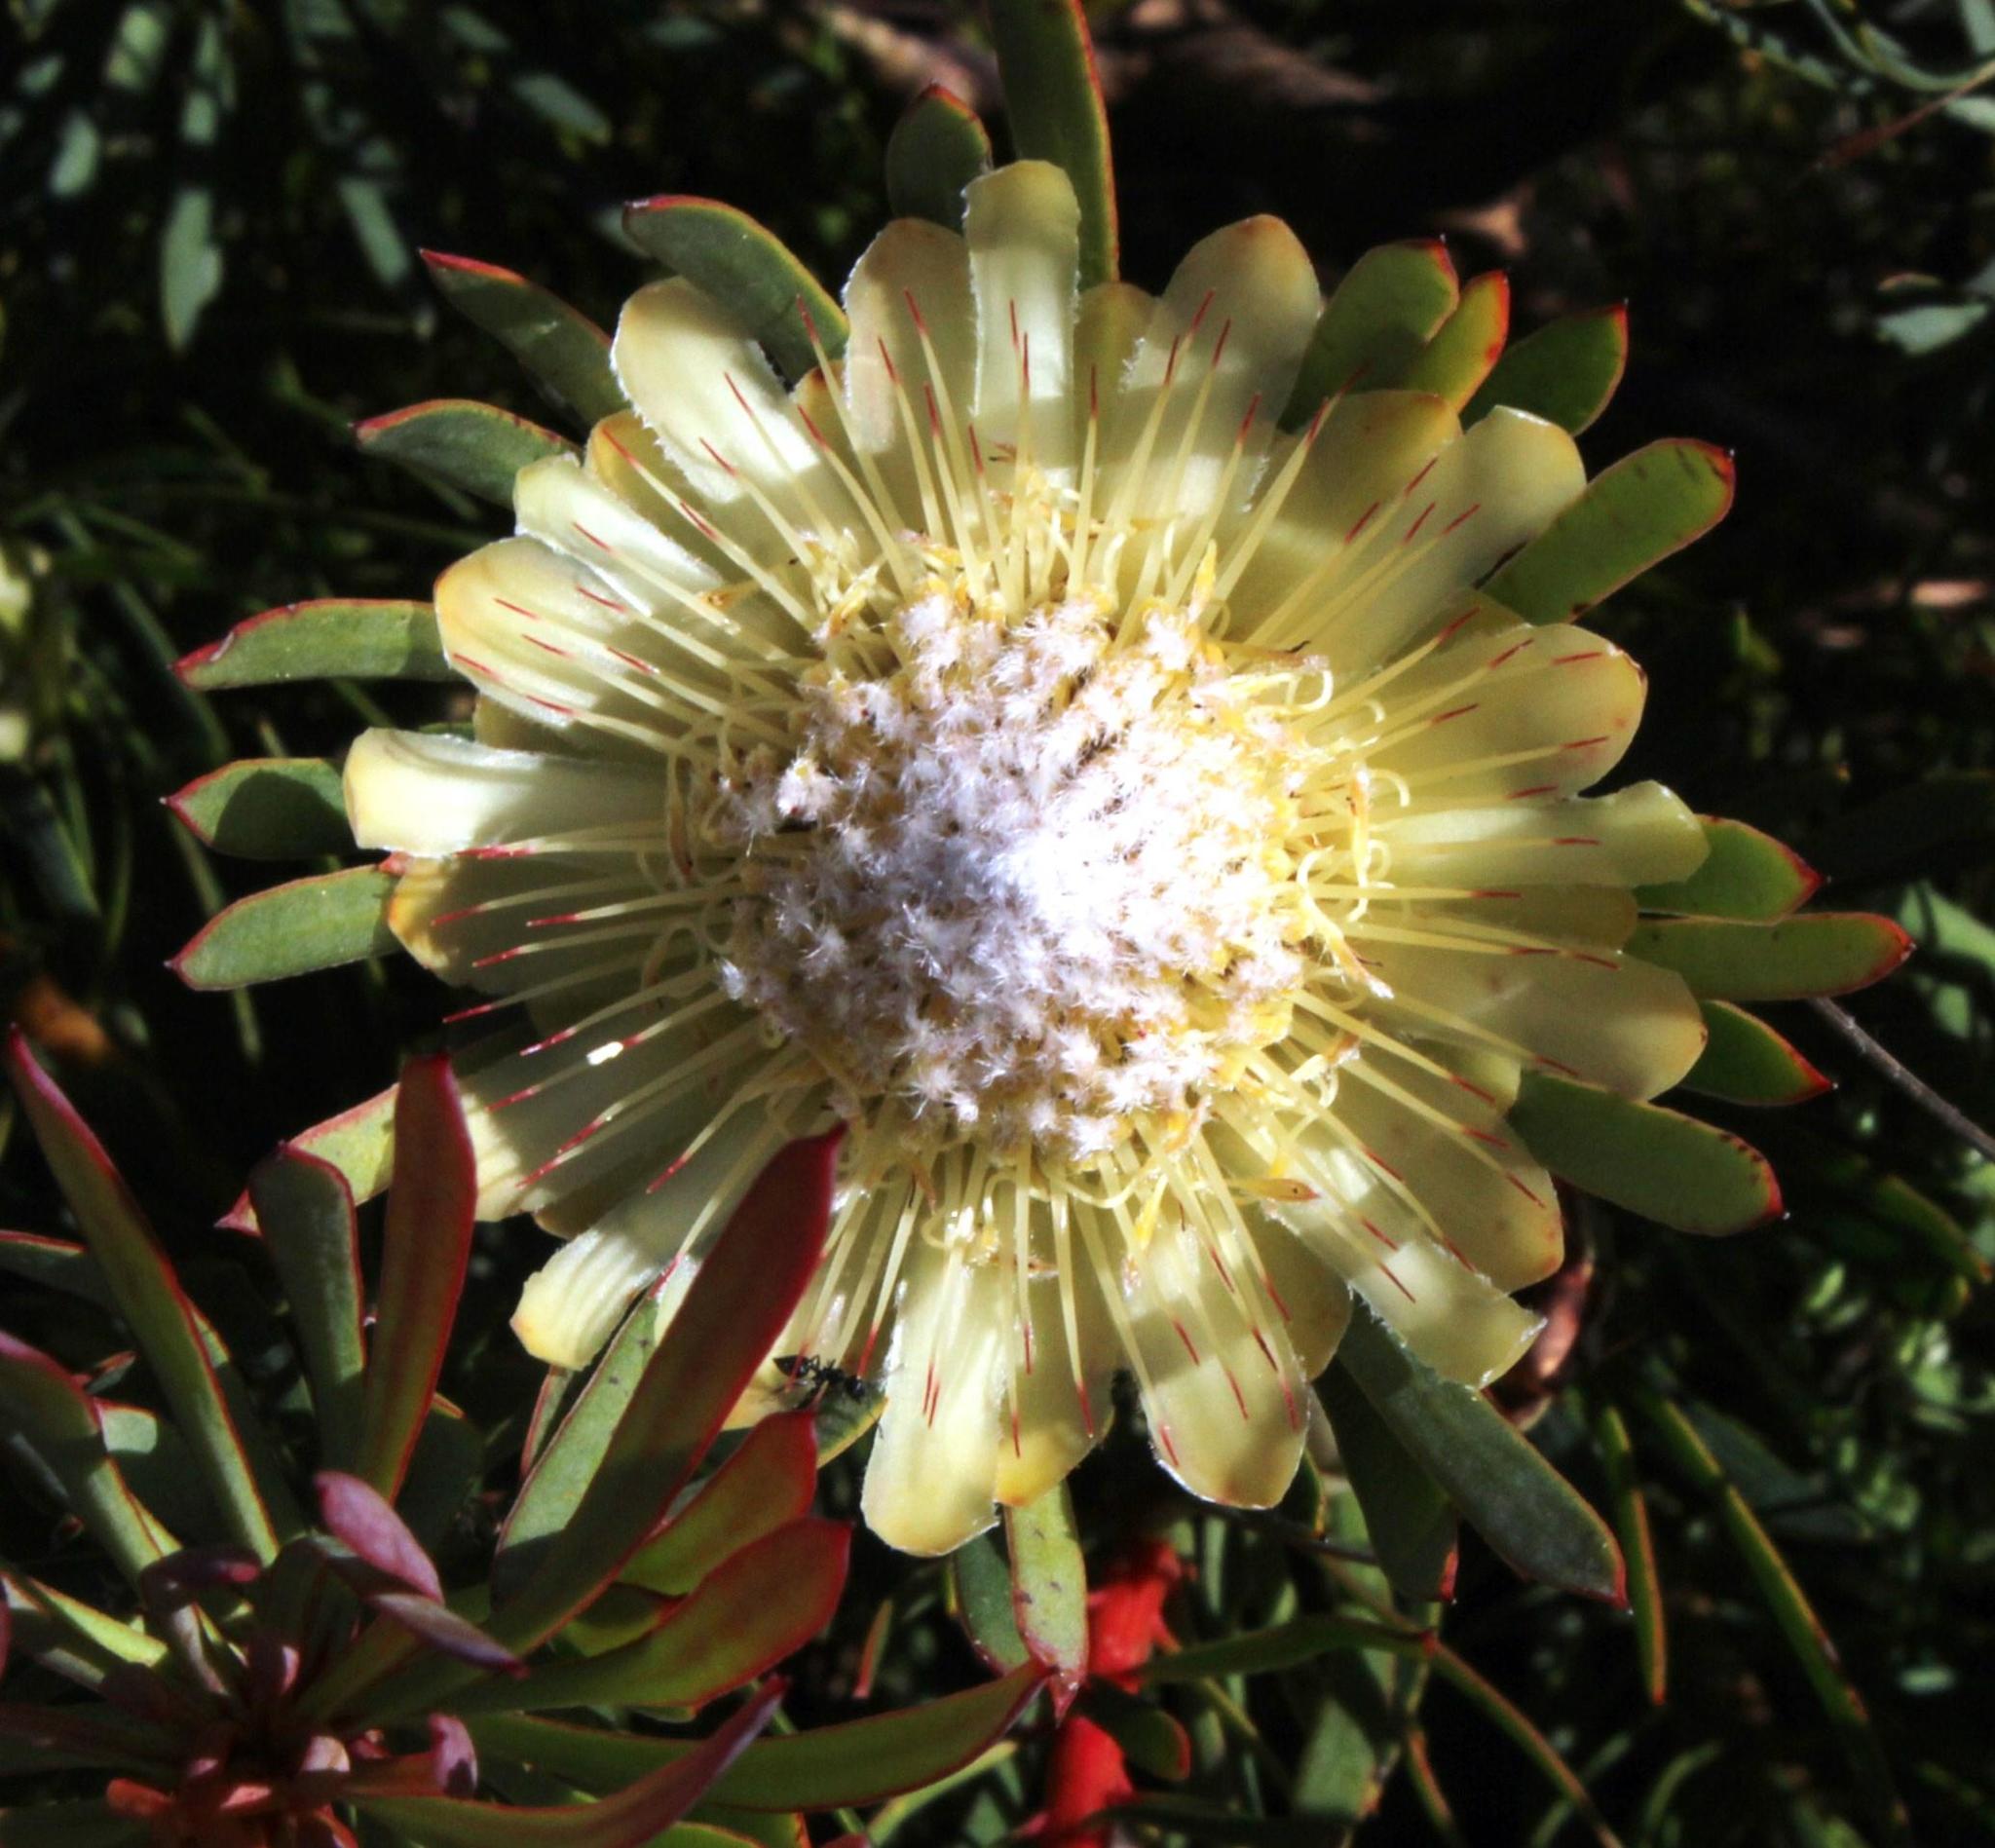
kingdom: Plantae
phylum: Tracheophyta
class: Magnoliopsida
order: Proteales
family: Proteaceae
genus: Protea
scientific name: Protea scolymocephala
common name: Thistle sugarbush
